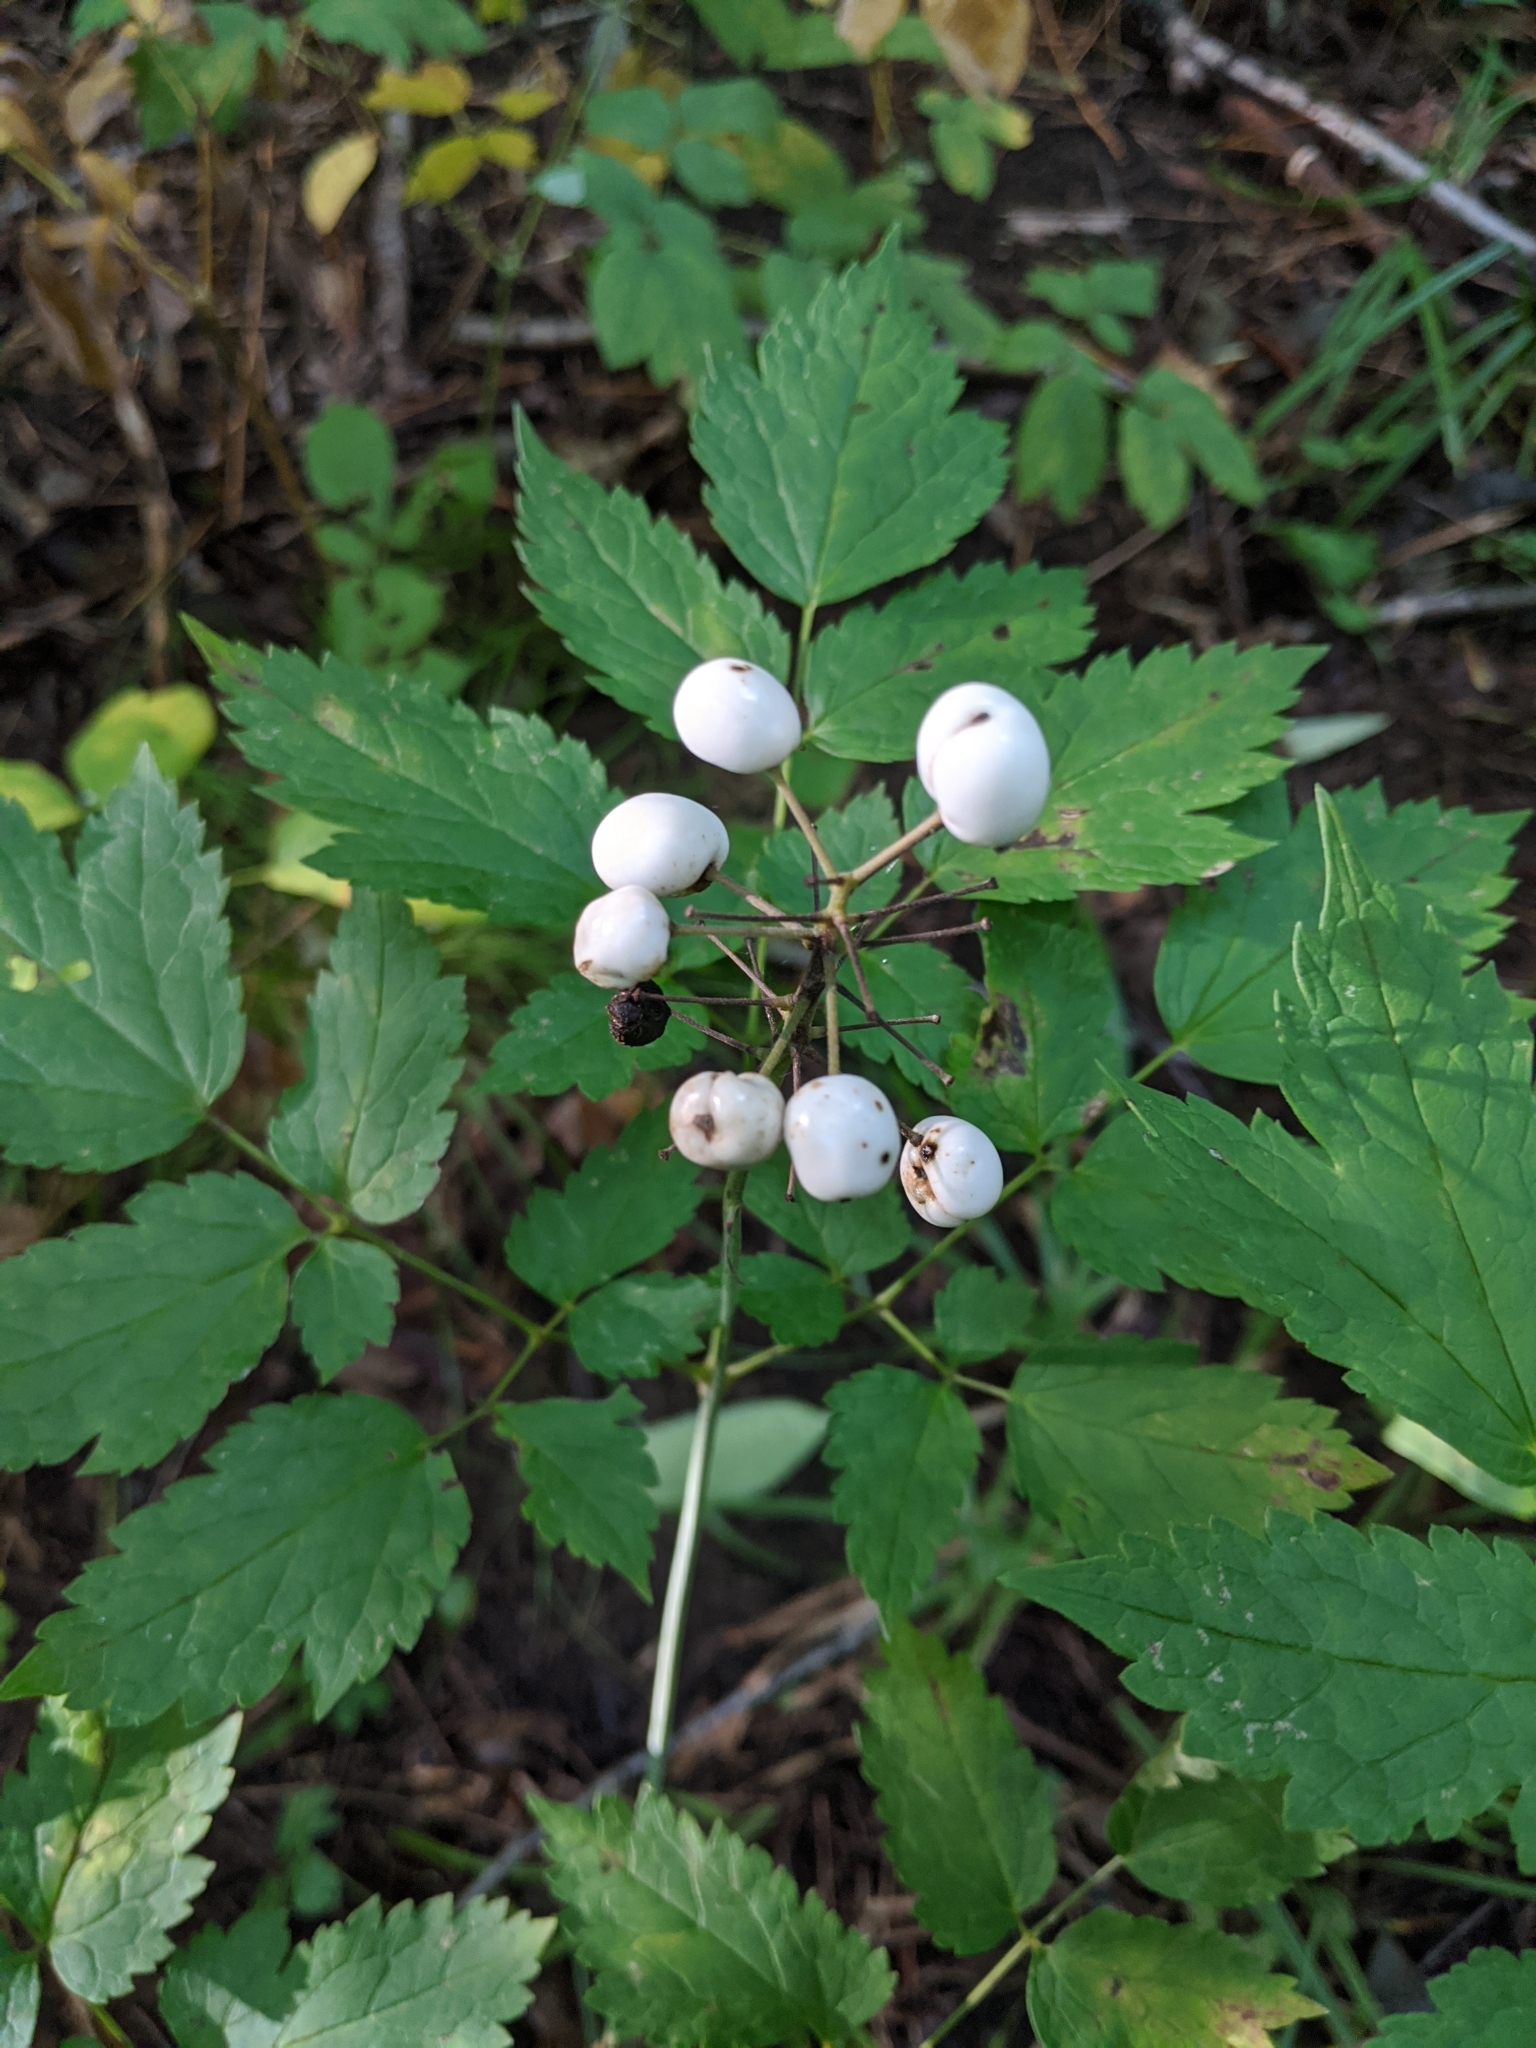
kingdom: Plantae
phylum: Tracheophyta
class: Magnoliopsida
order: Ranunculales
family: Ranunculaceae
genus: Actaea
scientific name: Actaea rubra
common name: Red baneberry
